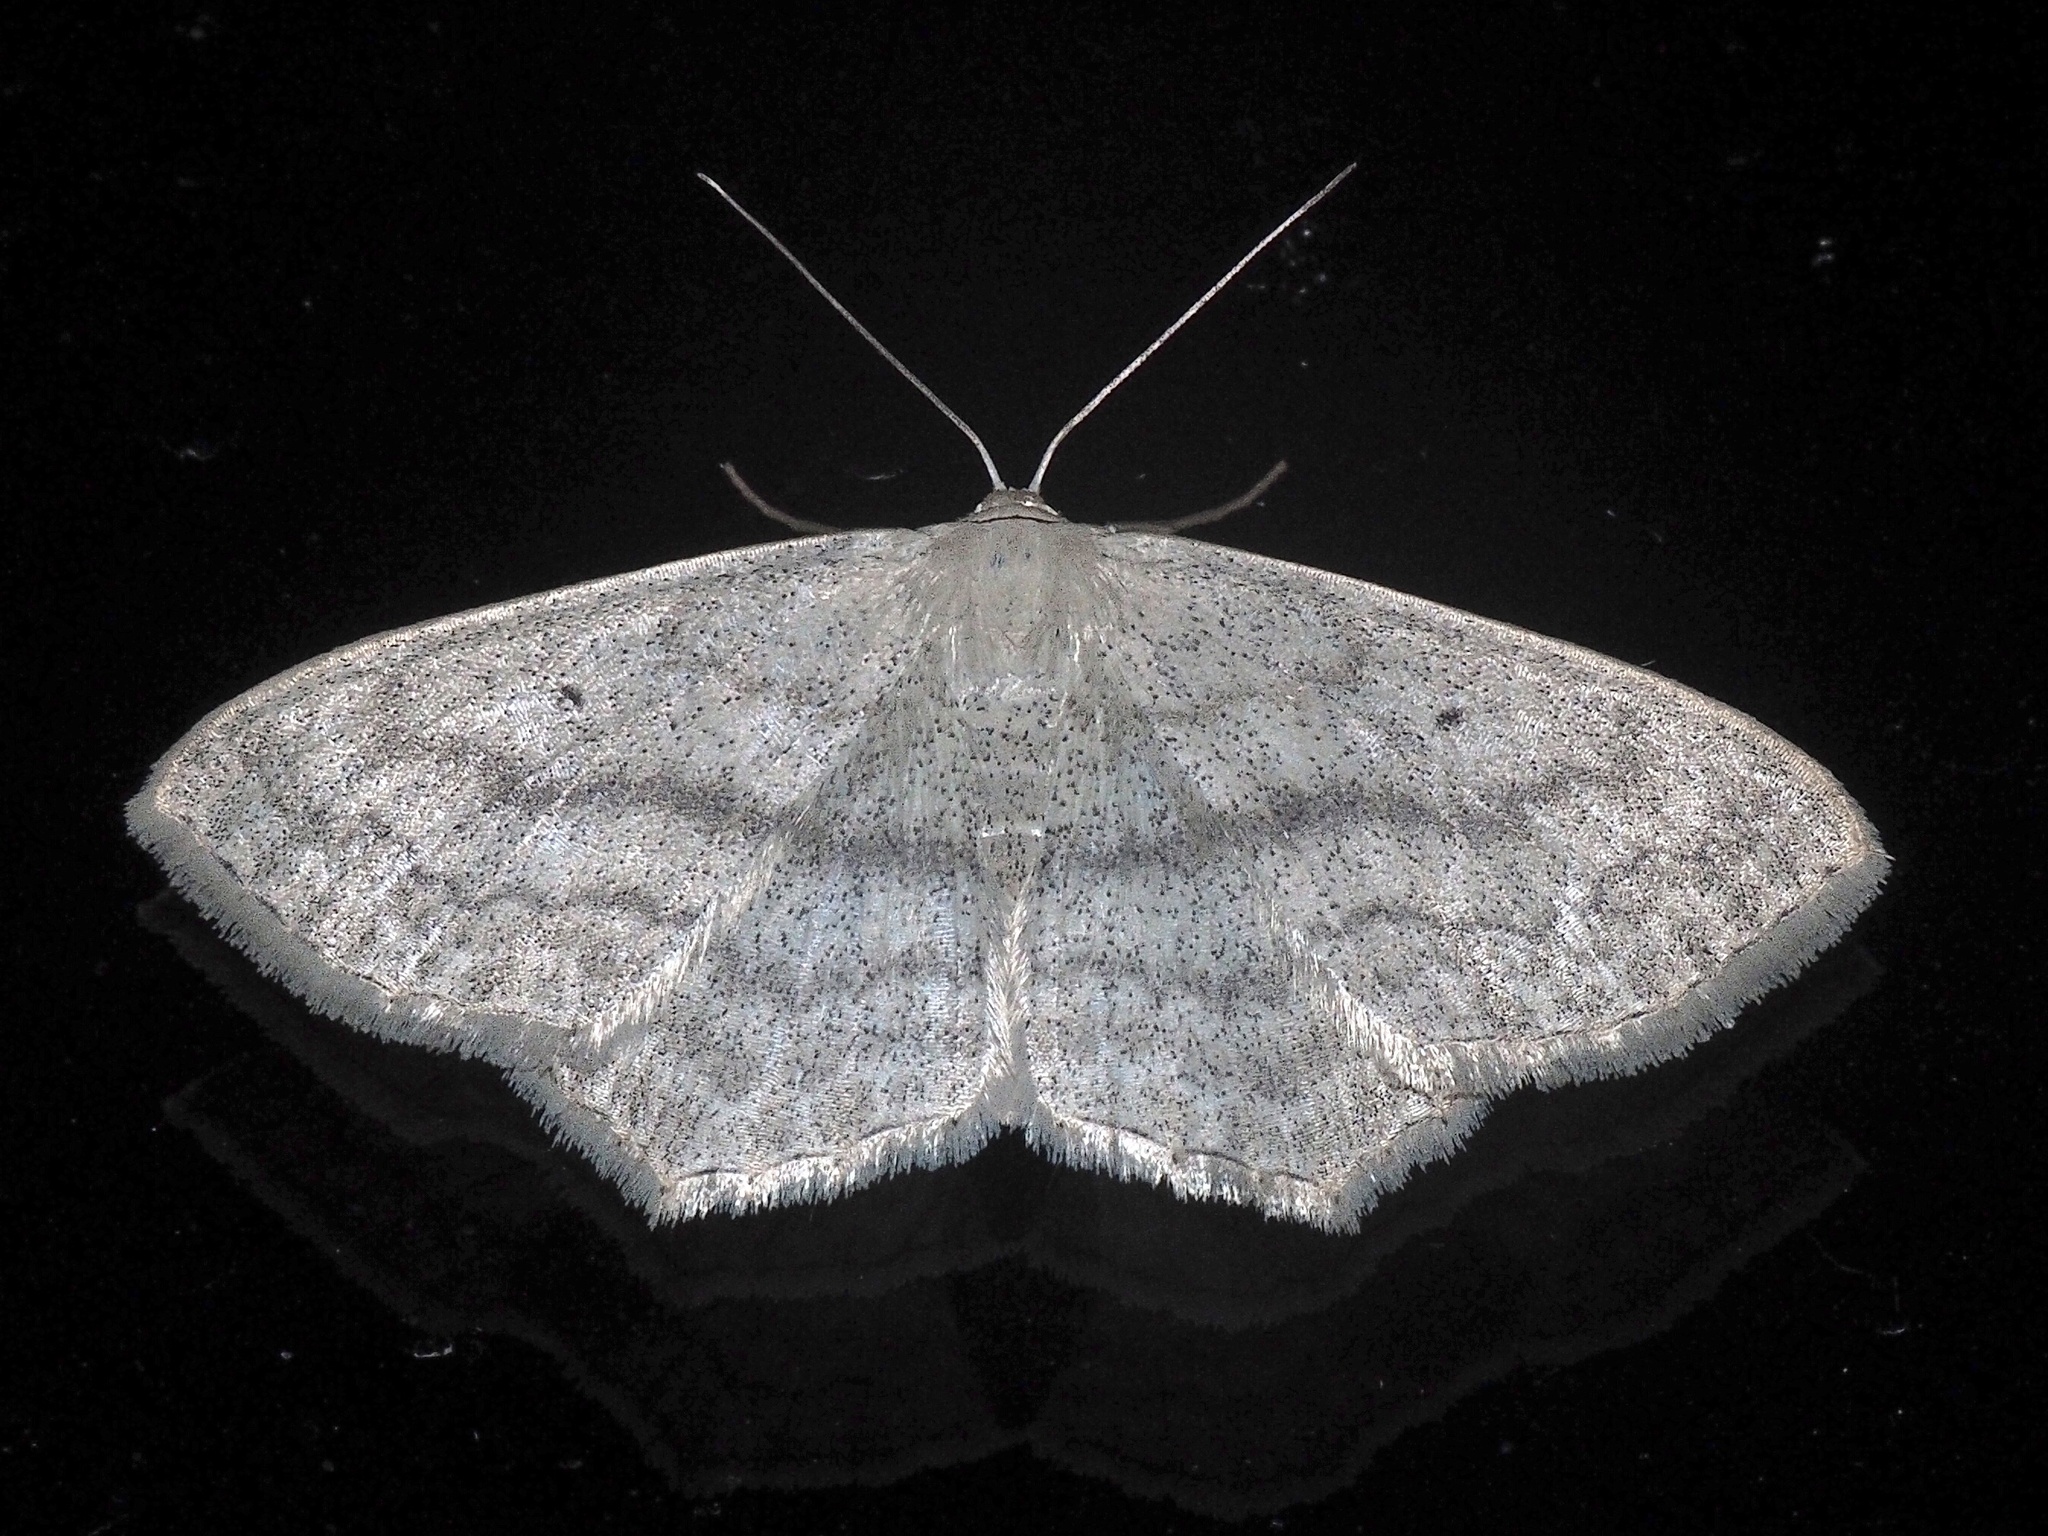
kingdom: Animalia
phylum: Arthropoda
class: Insecta
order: Lepidoptera
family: Geometridae
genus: Scopula
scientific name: Scopula nigropunctata
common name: Sub-angled wave
